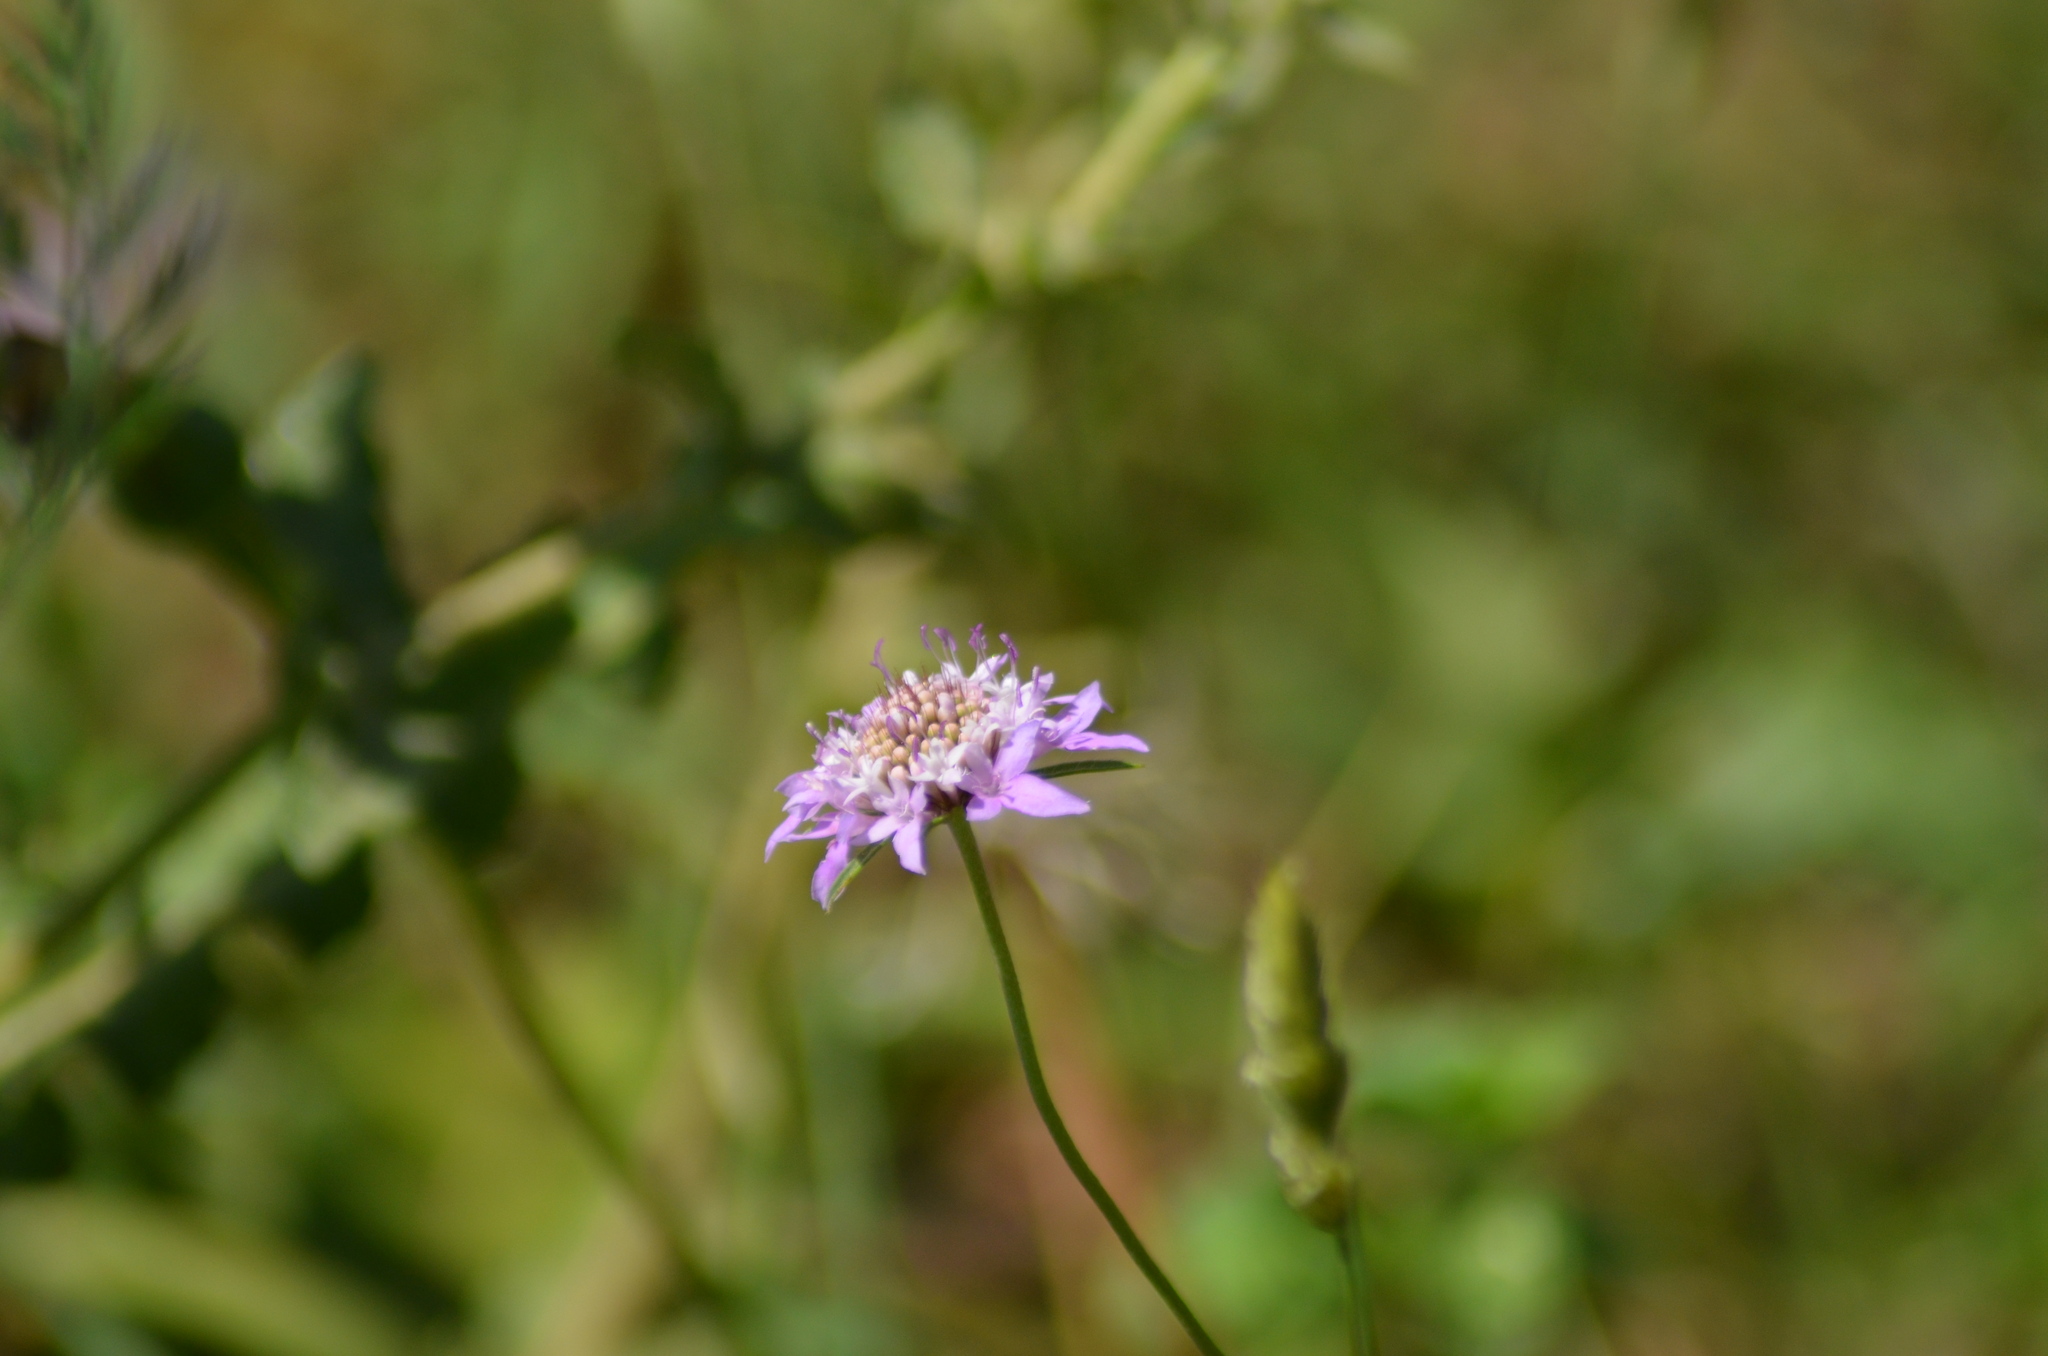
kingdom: Plantae
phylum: Tracheophyta
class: Magnoliopsida
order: Dipsacales
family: Caprifoliaceae
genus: Sixalix
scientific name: Sixalix atropurpurea
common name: Sweet scabious
